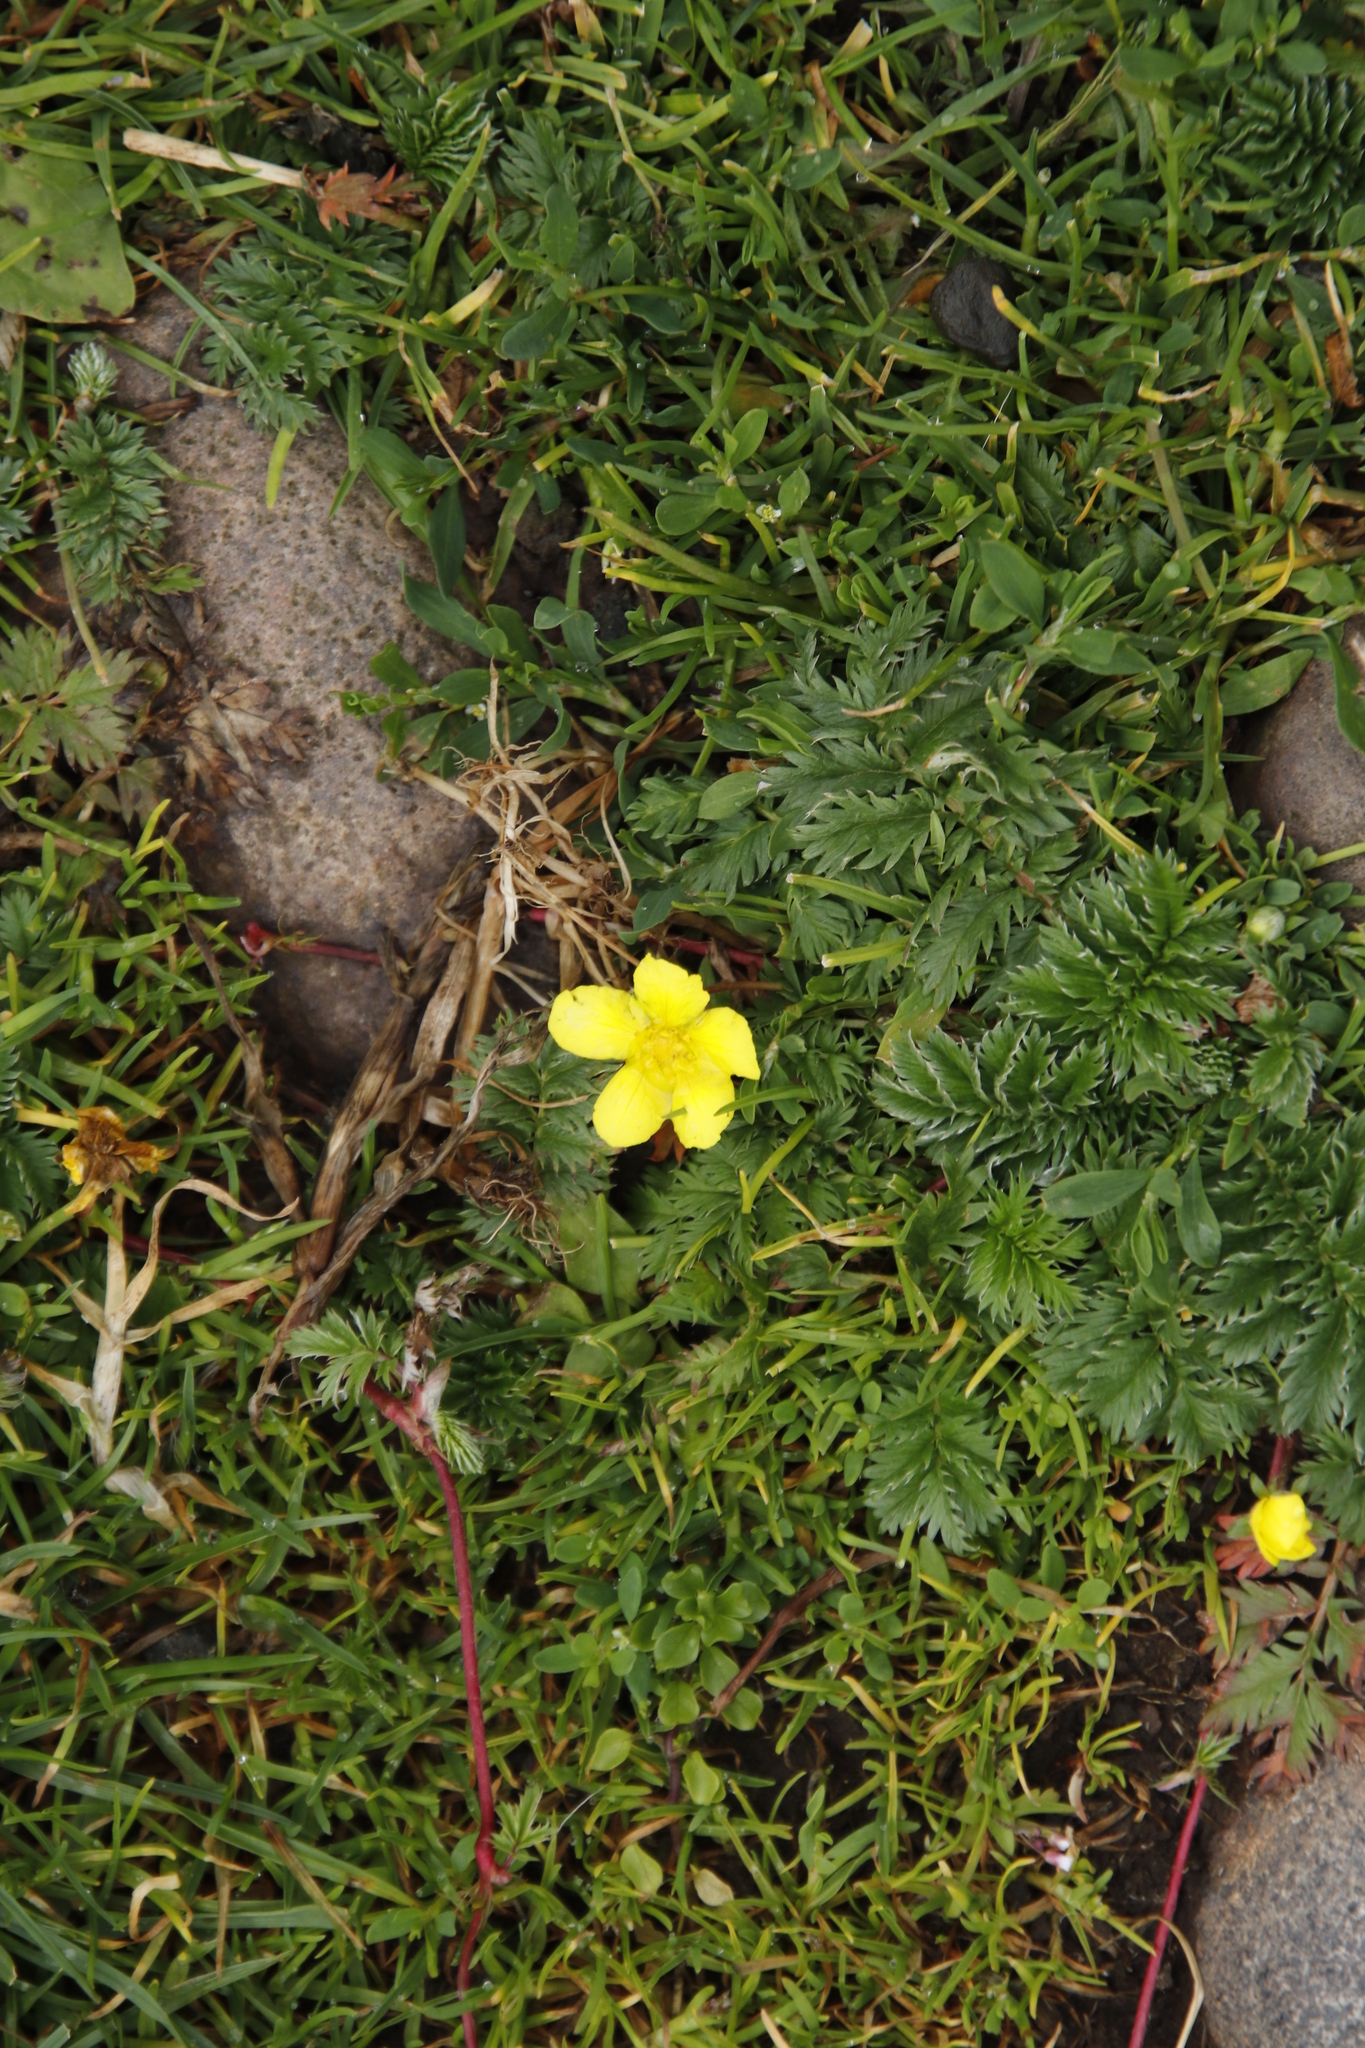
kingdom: Plantae
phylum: Tracheophyta
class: Magnoliopsida
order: Rosales
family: Rosaceae
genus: Argentina
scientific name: Argentina anserina
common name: Common silverweed
